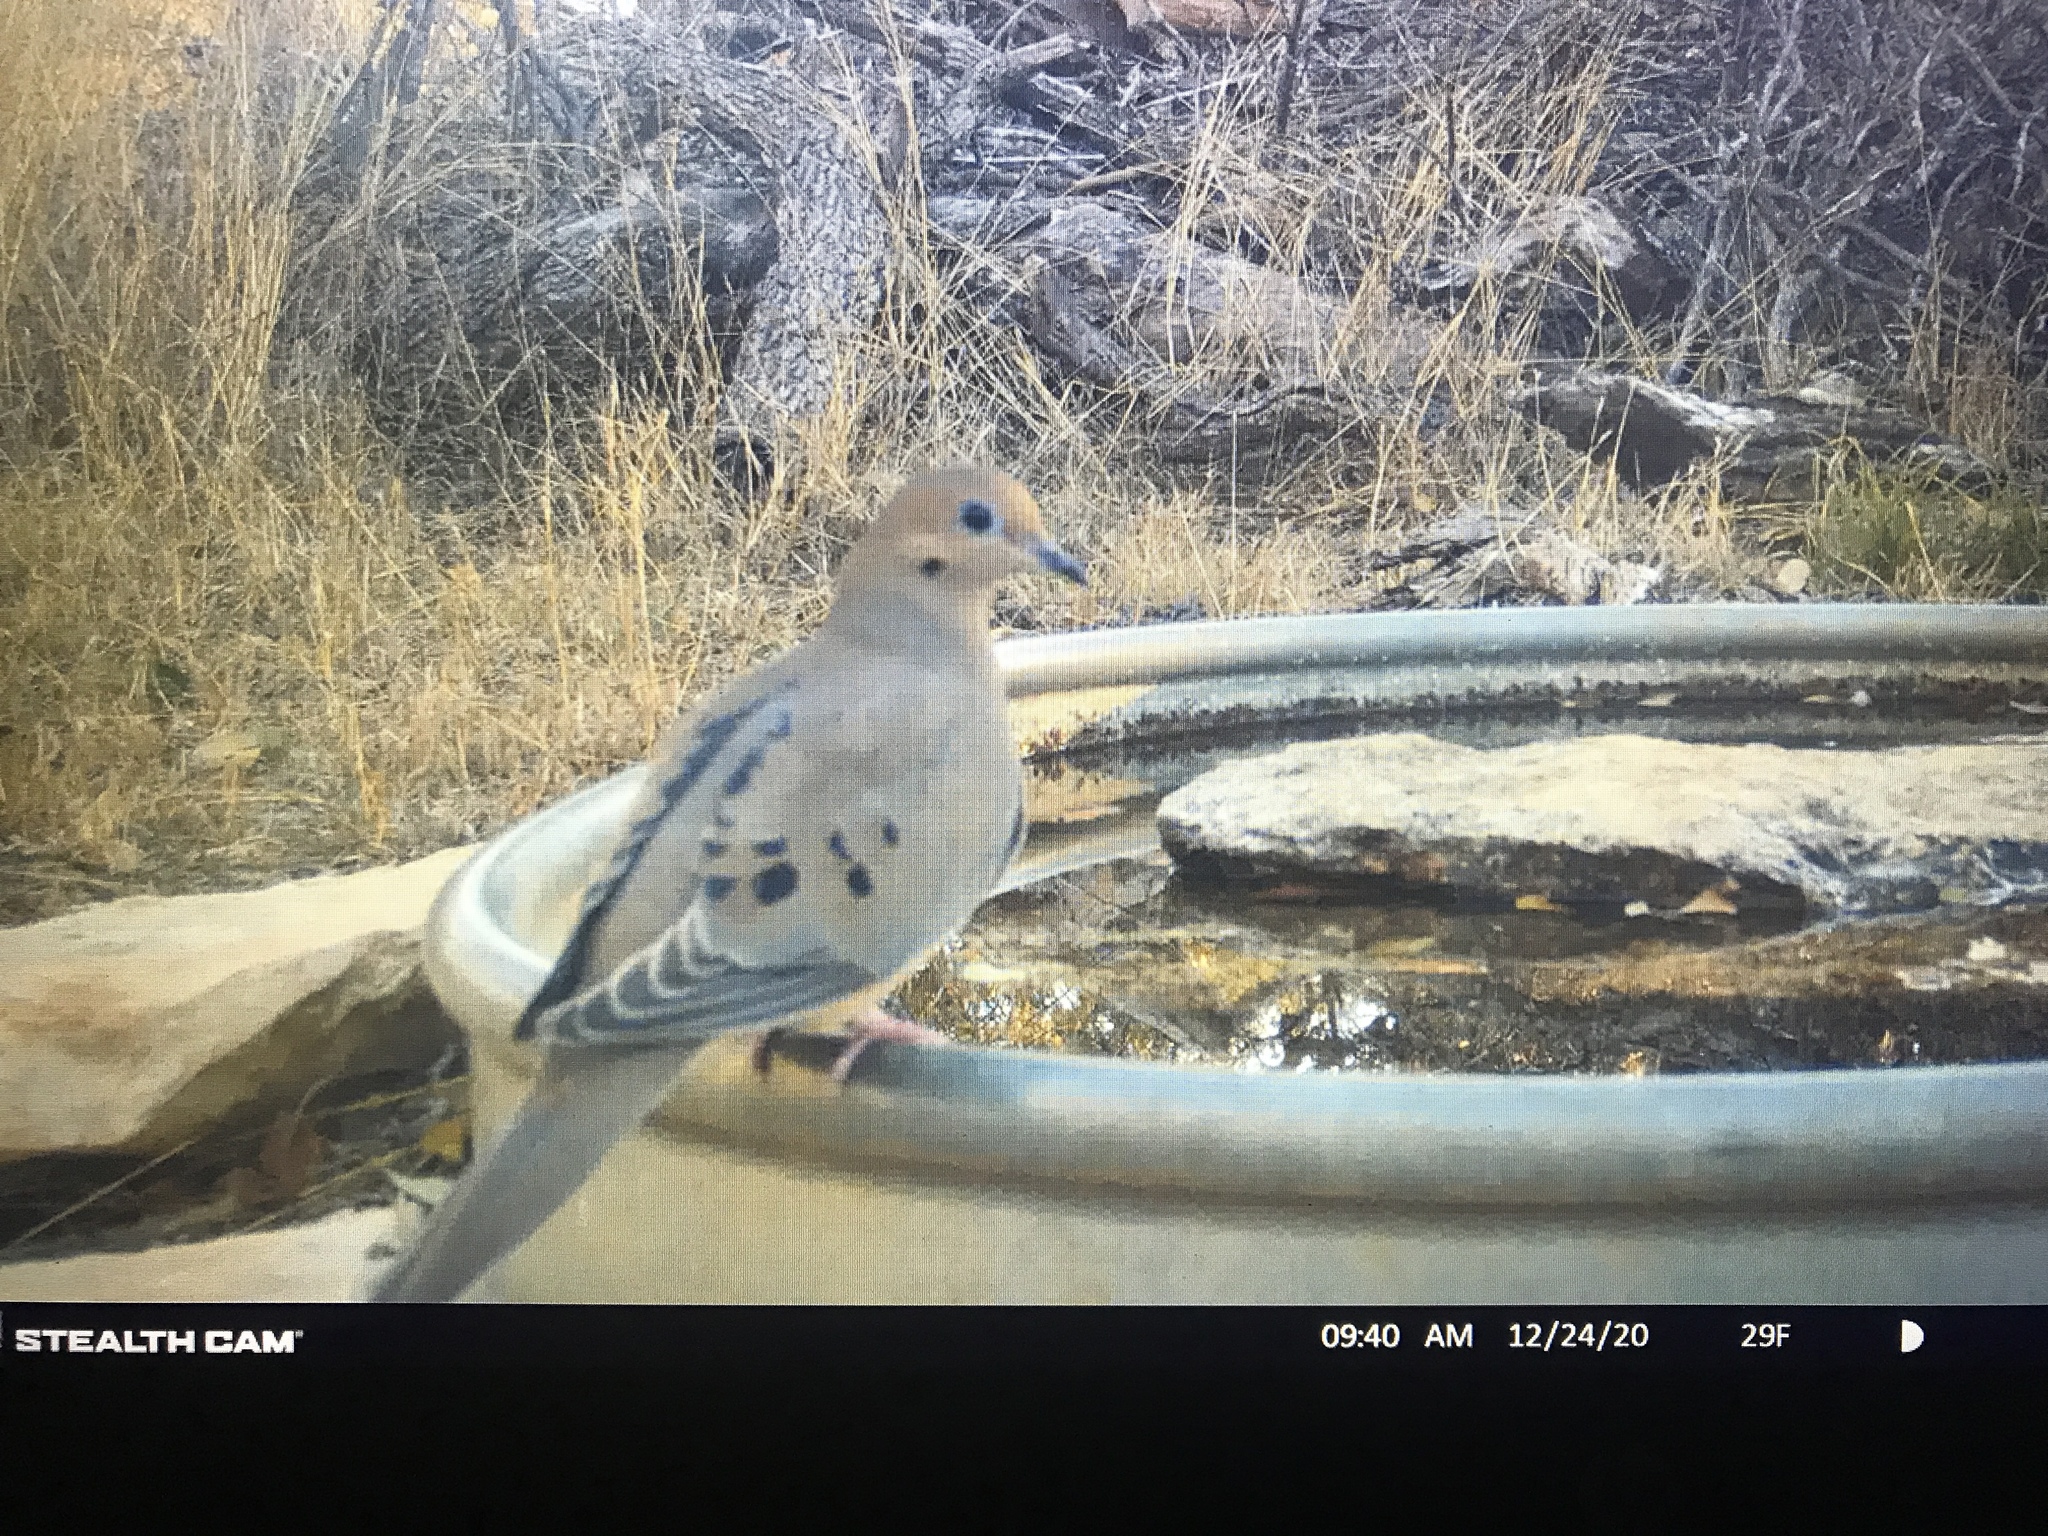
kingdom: Animalia
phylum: Chordata
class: Aves
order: Columbiformes
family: Columbidae
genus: Zenaida
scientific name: Zenaida macroura
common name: Mourning dove
